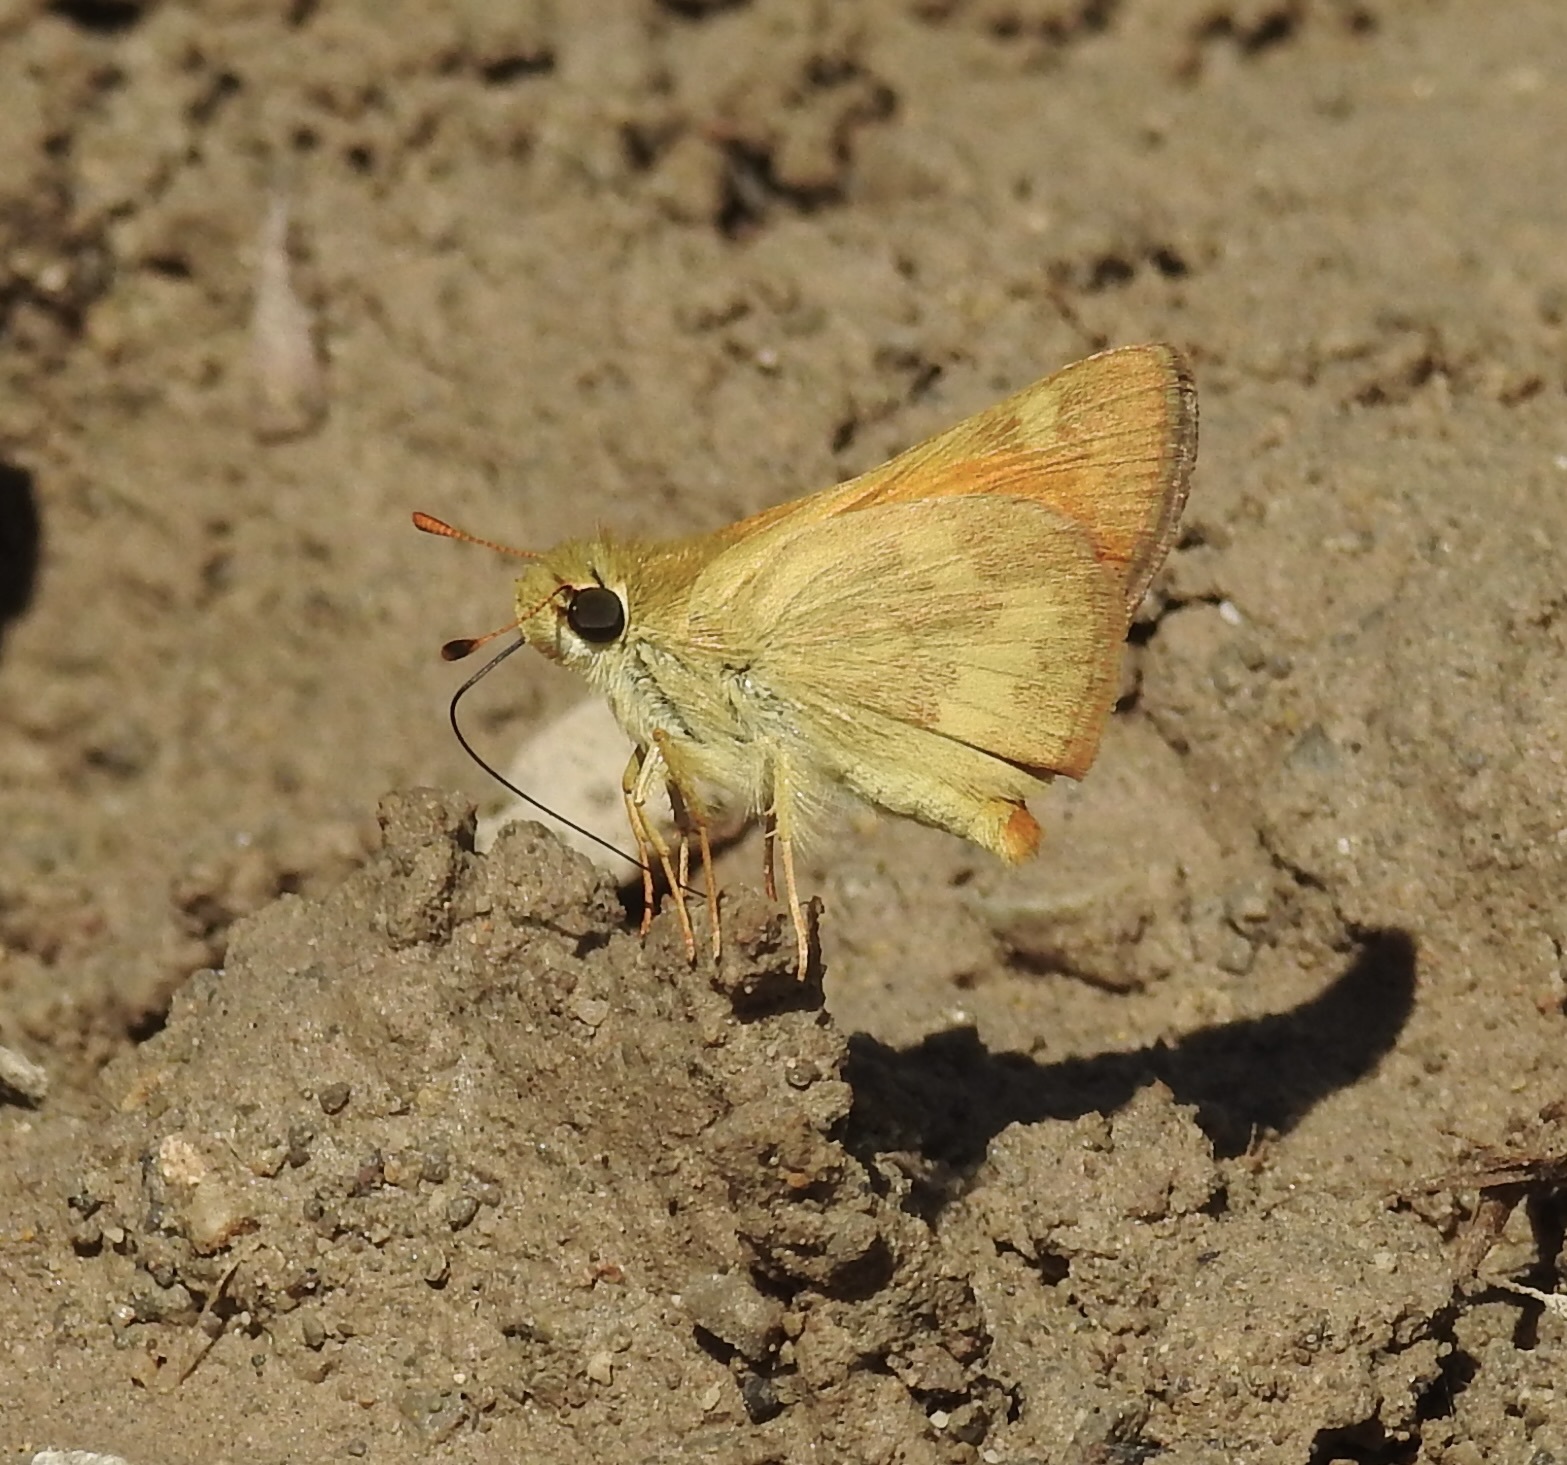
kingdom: Animalia
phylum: Arthropoda
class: Insecta
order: Lepidoptera
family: Hesperiidae
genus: Ochlodes
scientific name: Ochlodes sylvanoides
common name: Woodland skipper
